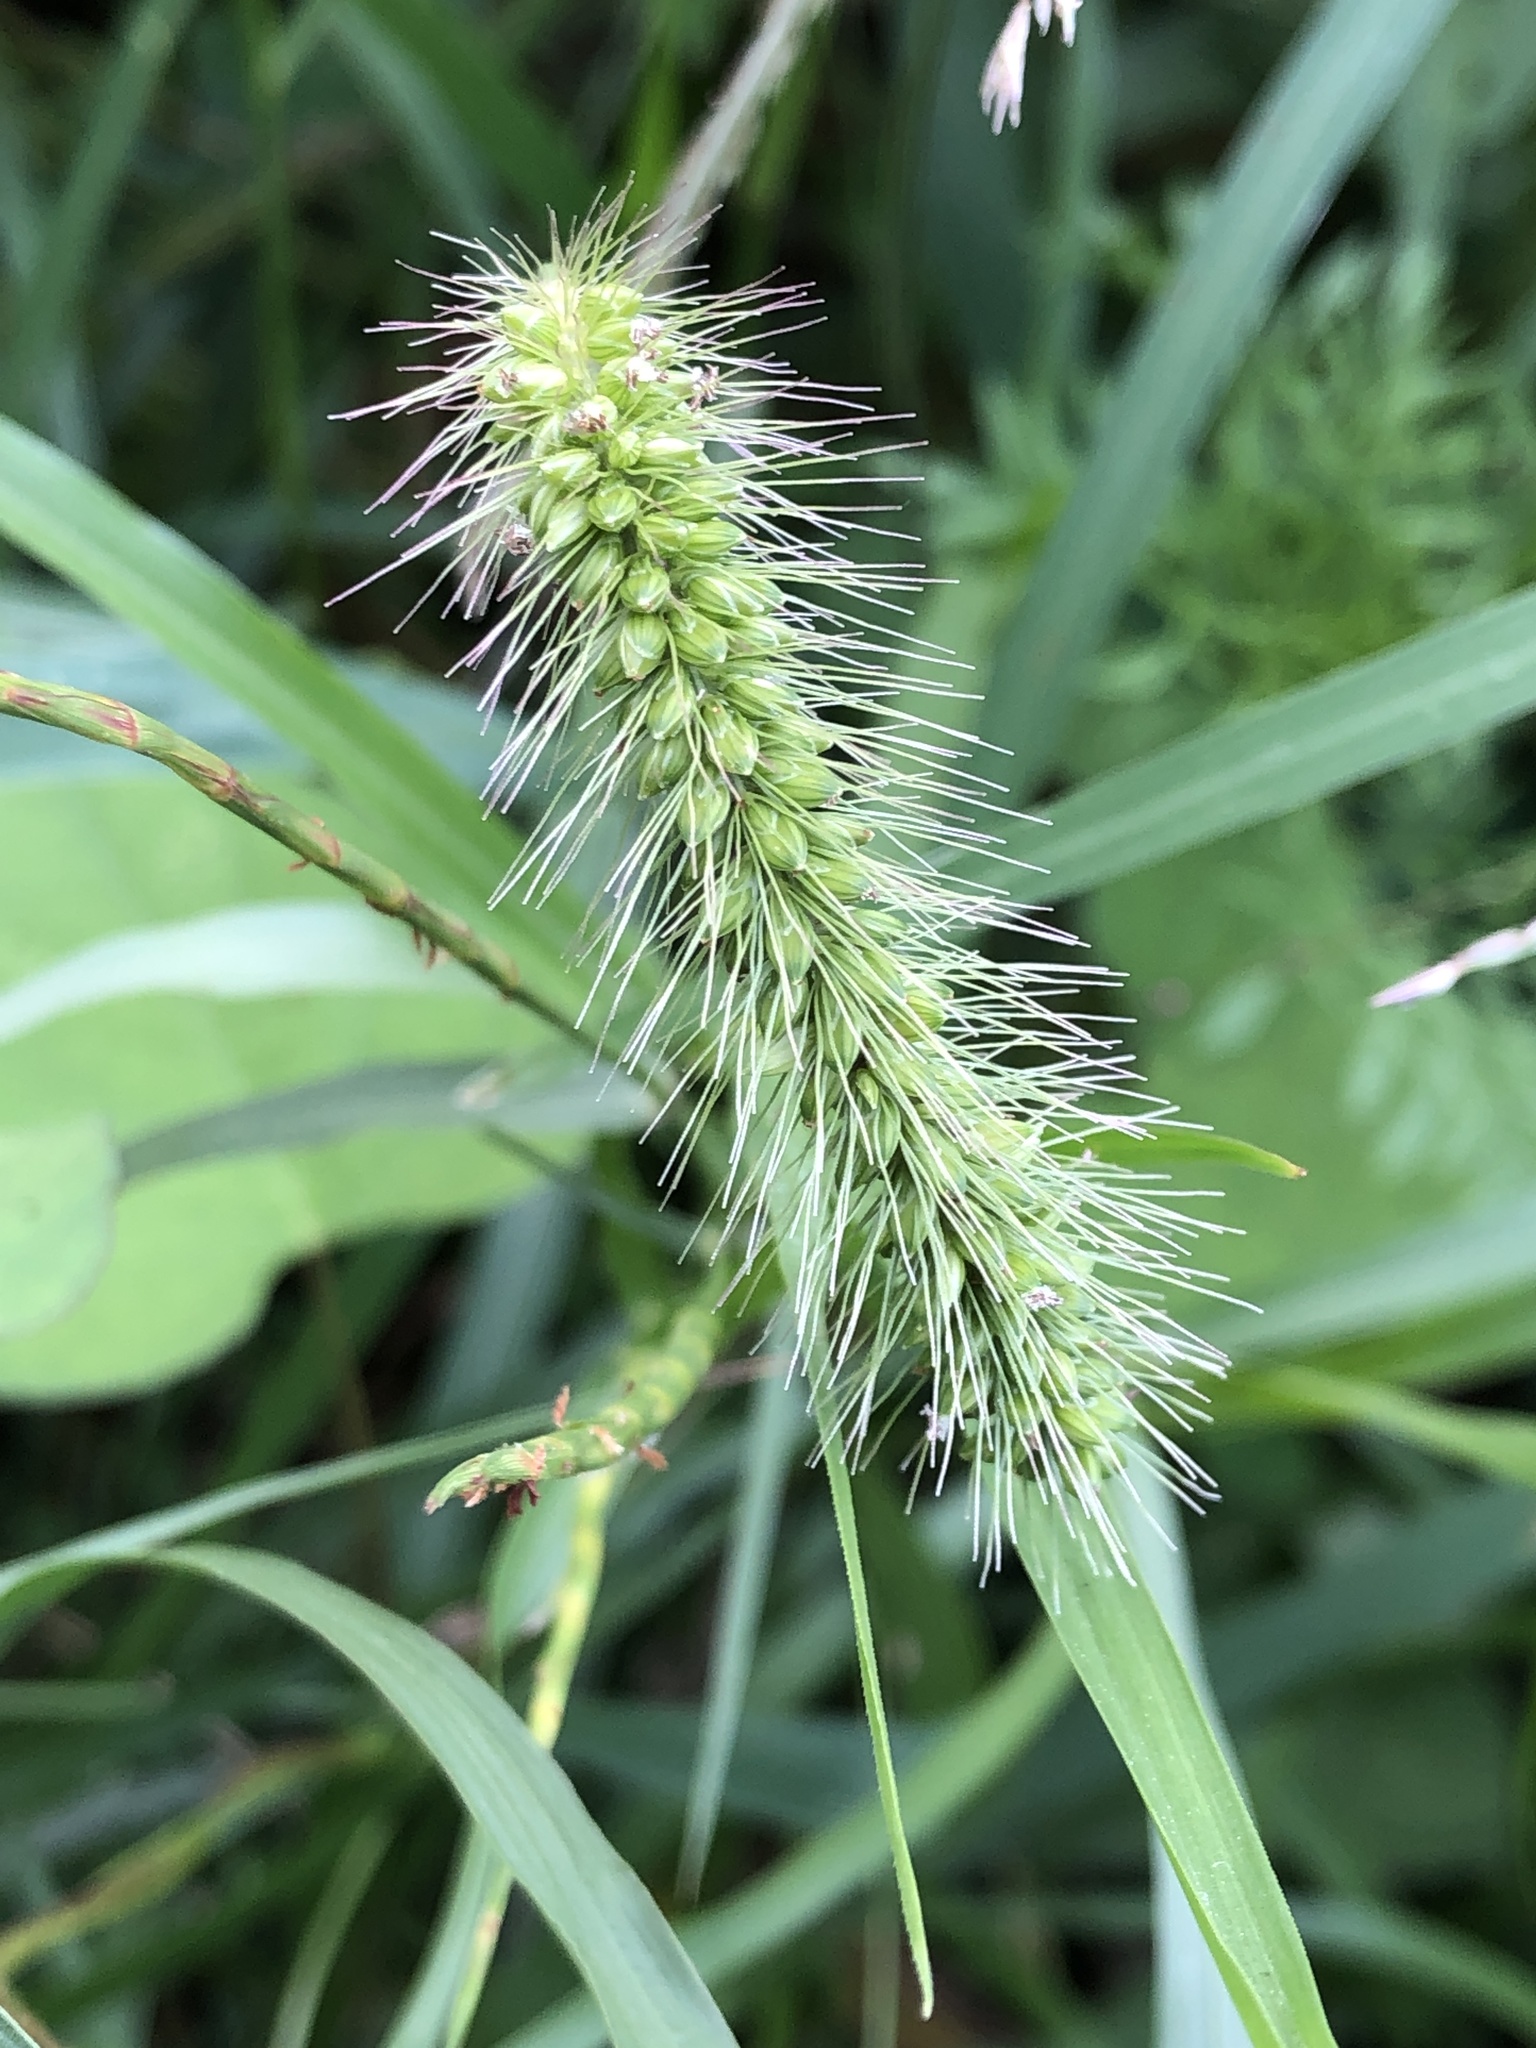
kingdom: Plantae
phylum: Tracheophyta
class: Liliopsida
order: Poales
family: Poaceae
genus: Setaria
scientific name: Setaria faberi
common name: Nodding bristle-grass
